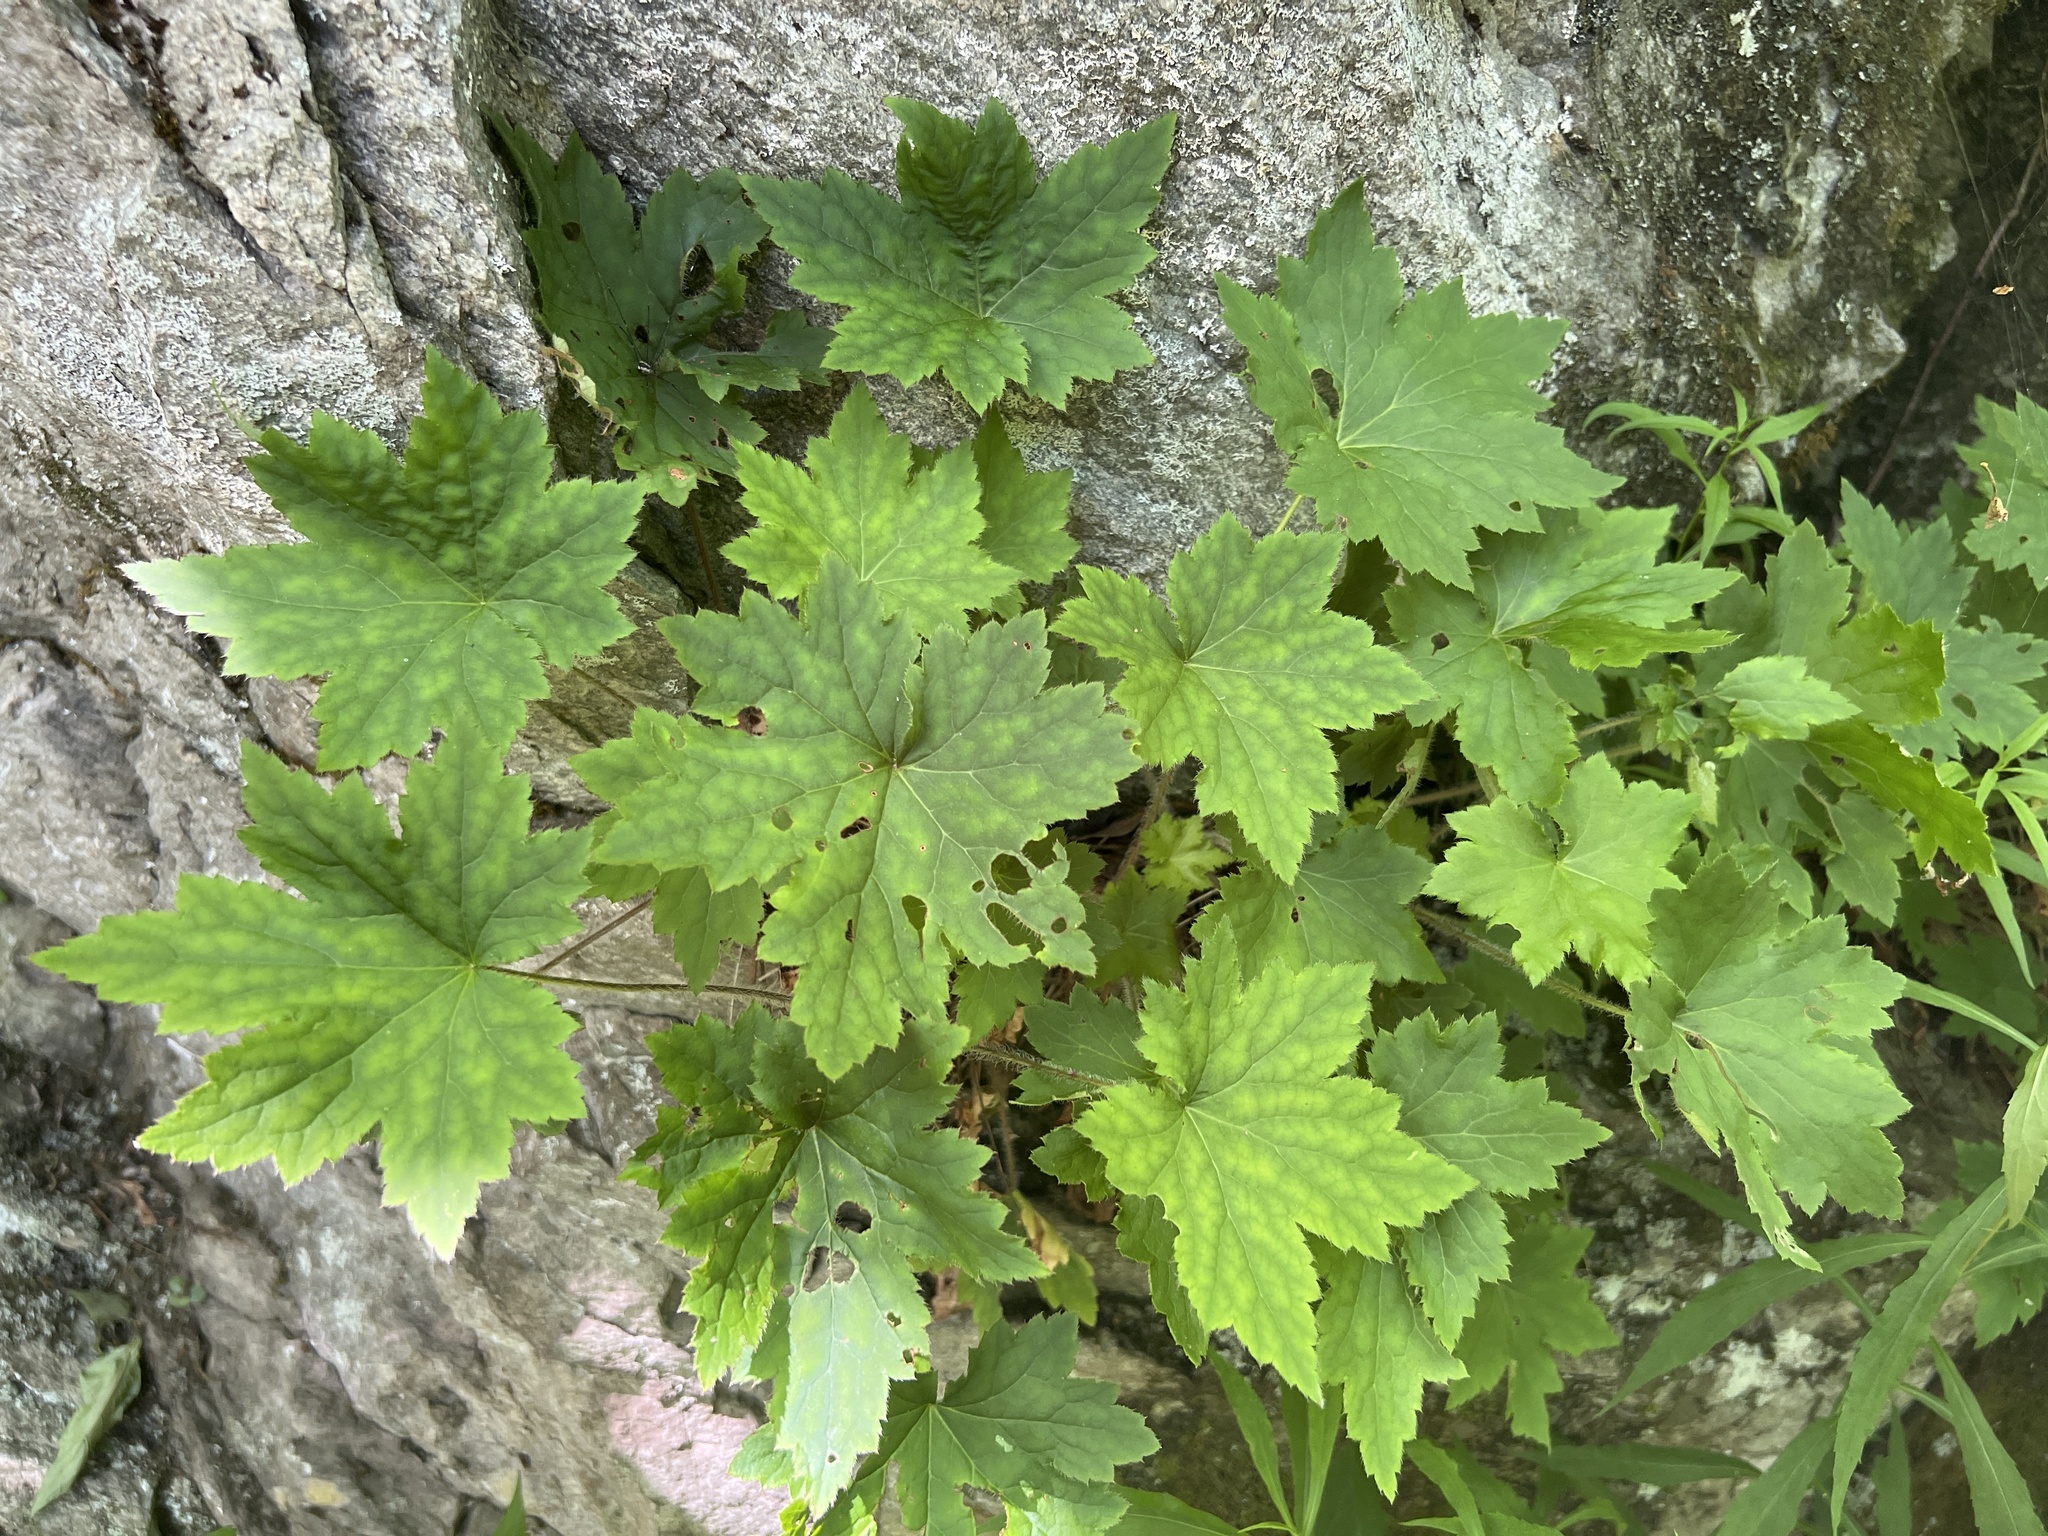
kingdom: Plantae
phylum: Tracheophyta
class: Magnoliopsida
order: Saxifragales
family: Saxifragaceae
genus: Heuchera
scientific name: Heuchera villosa
